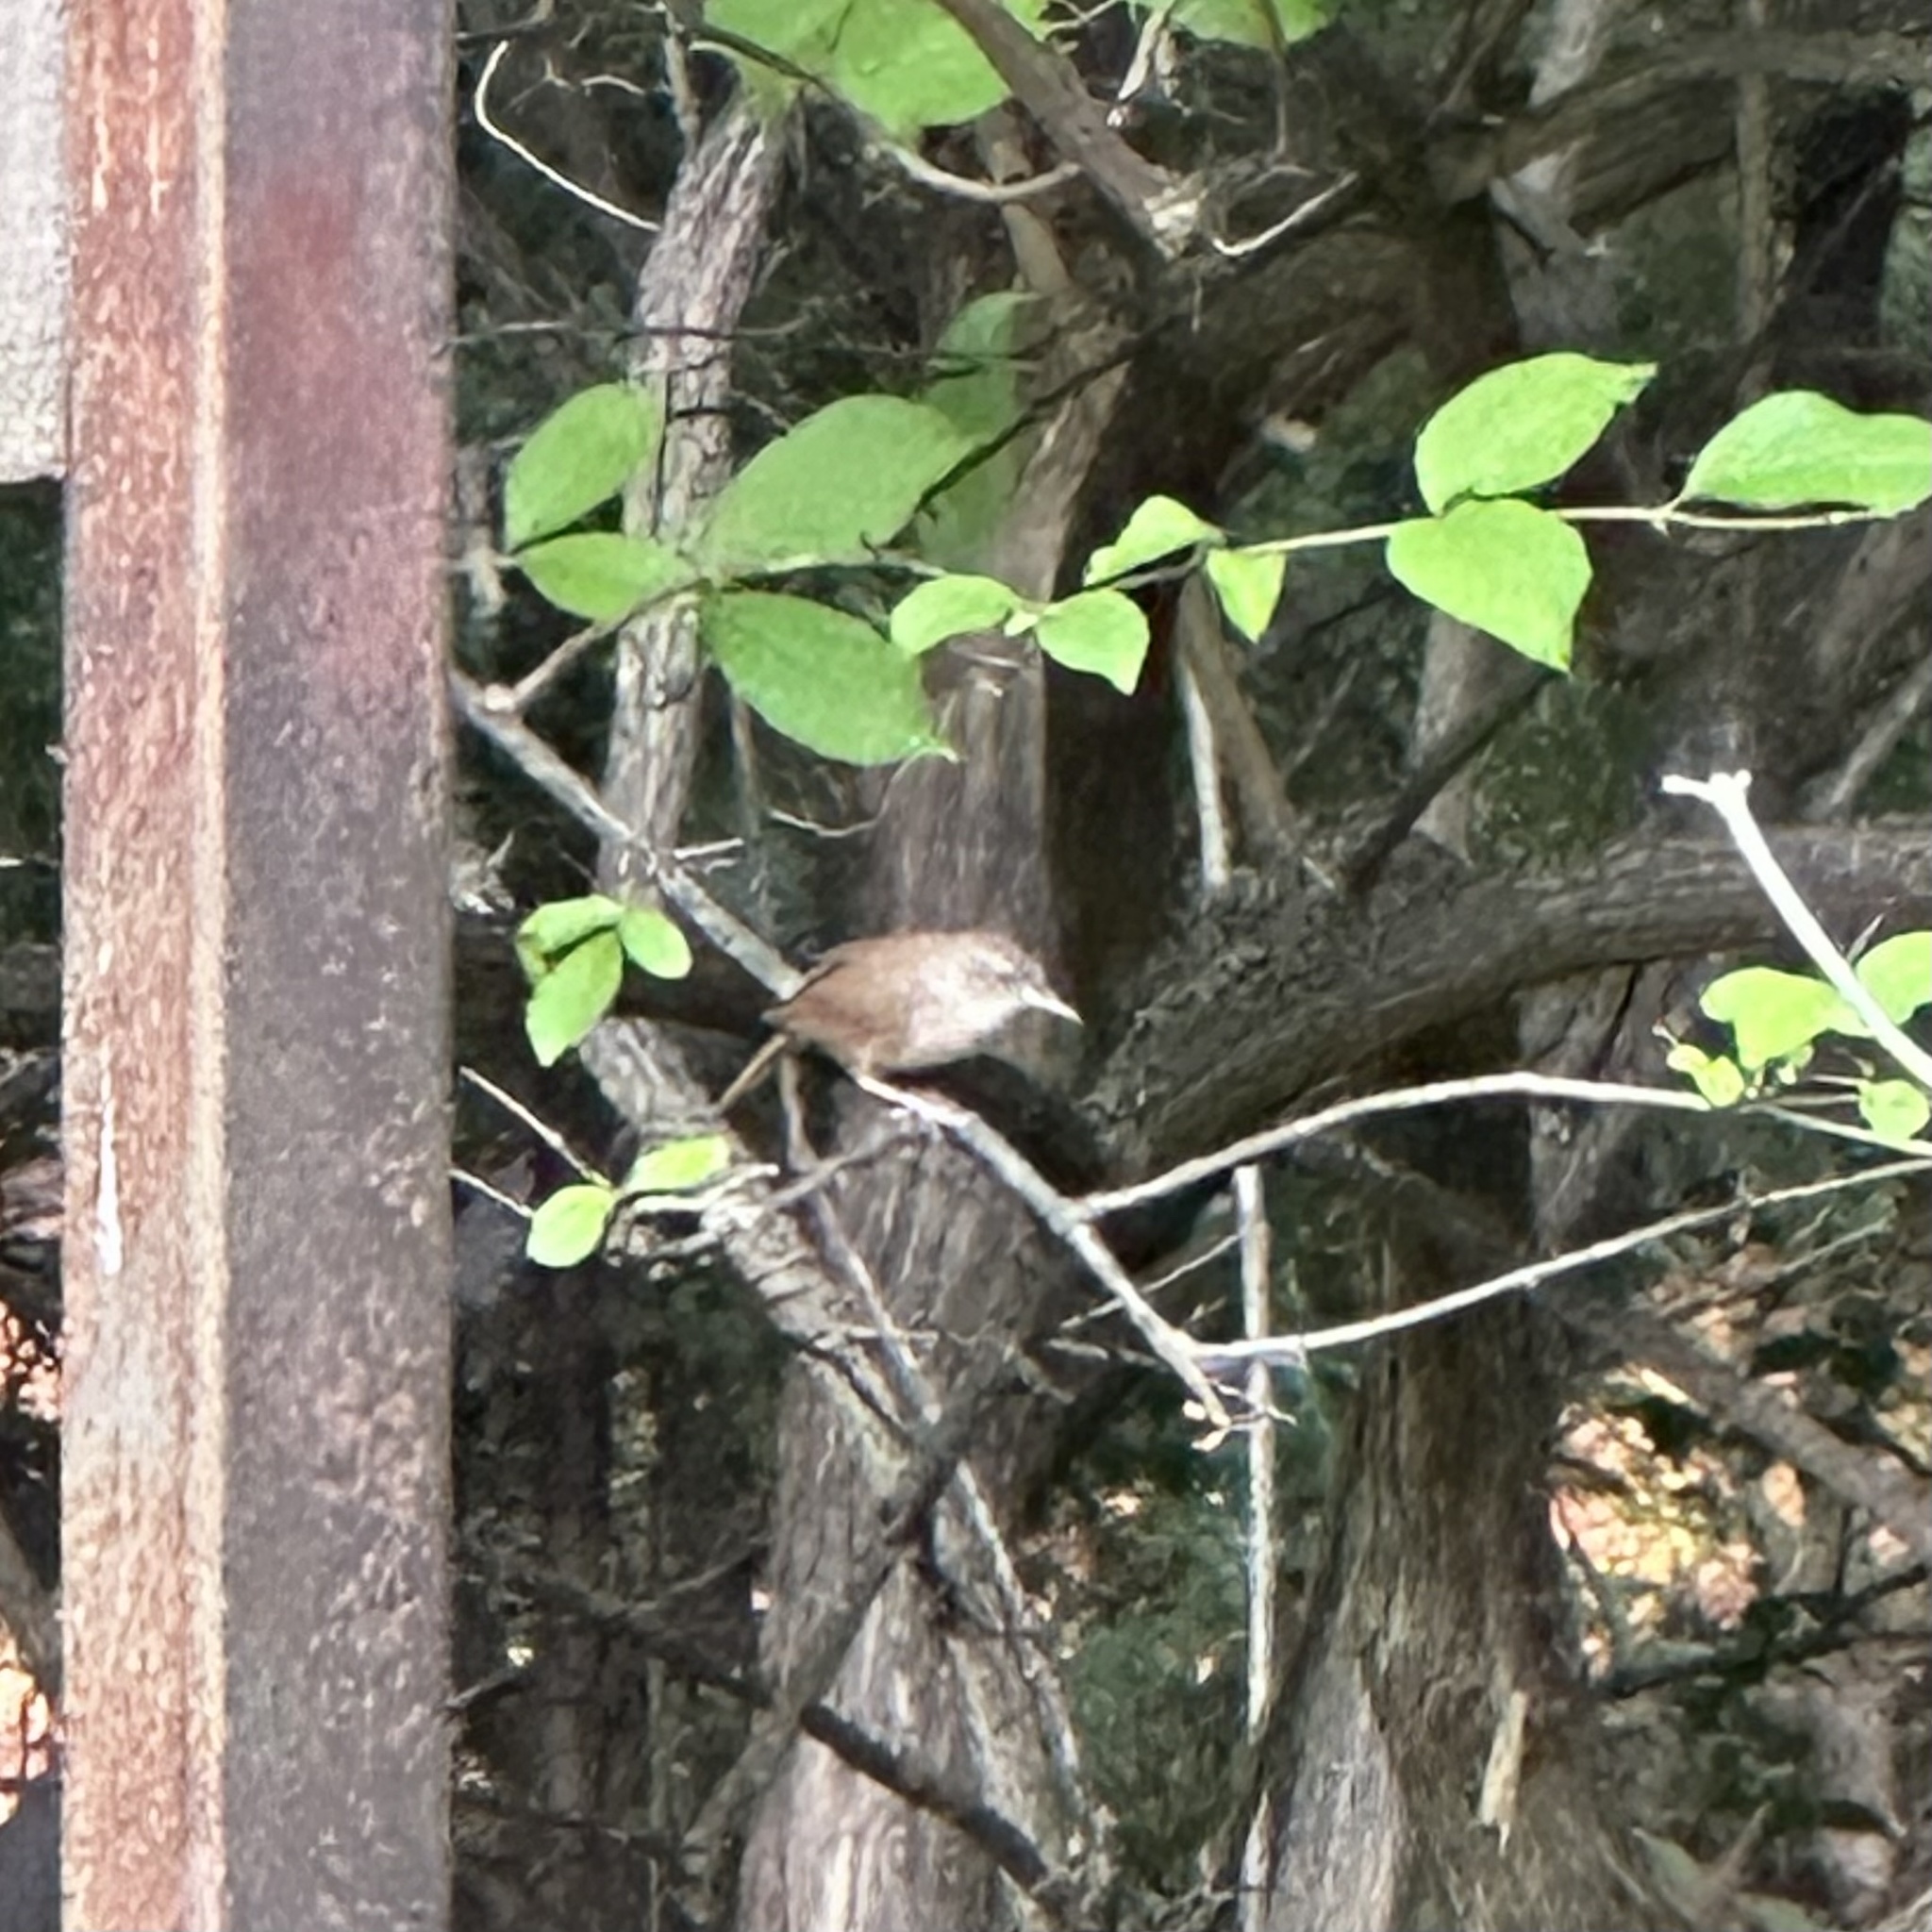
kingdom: Animalia
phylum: Chordata
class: Aves
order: Passeriformes
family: Troglodytidae
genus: Troglodytes
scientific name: Troglodytes aedon
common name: House wren
